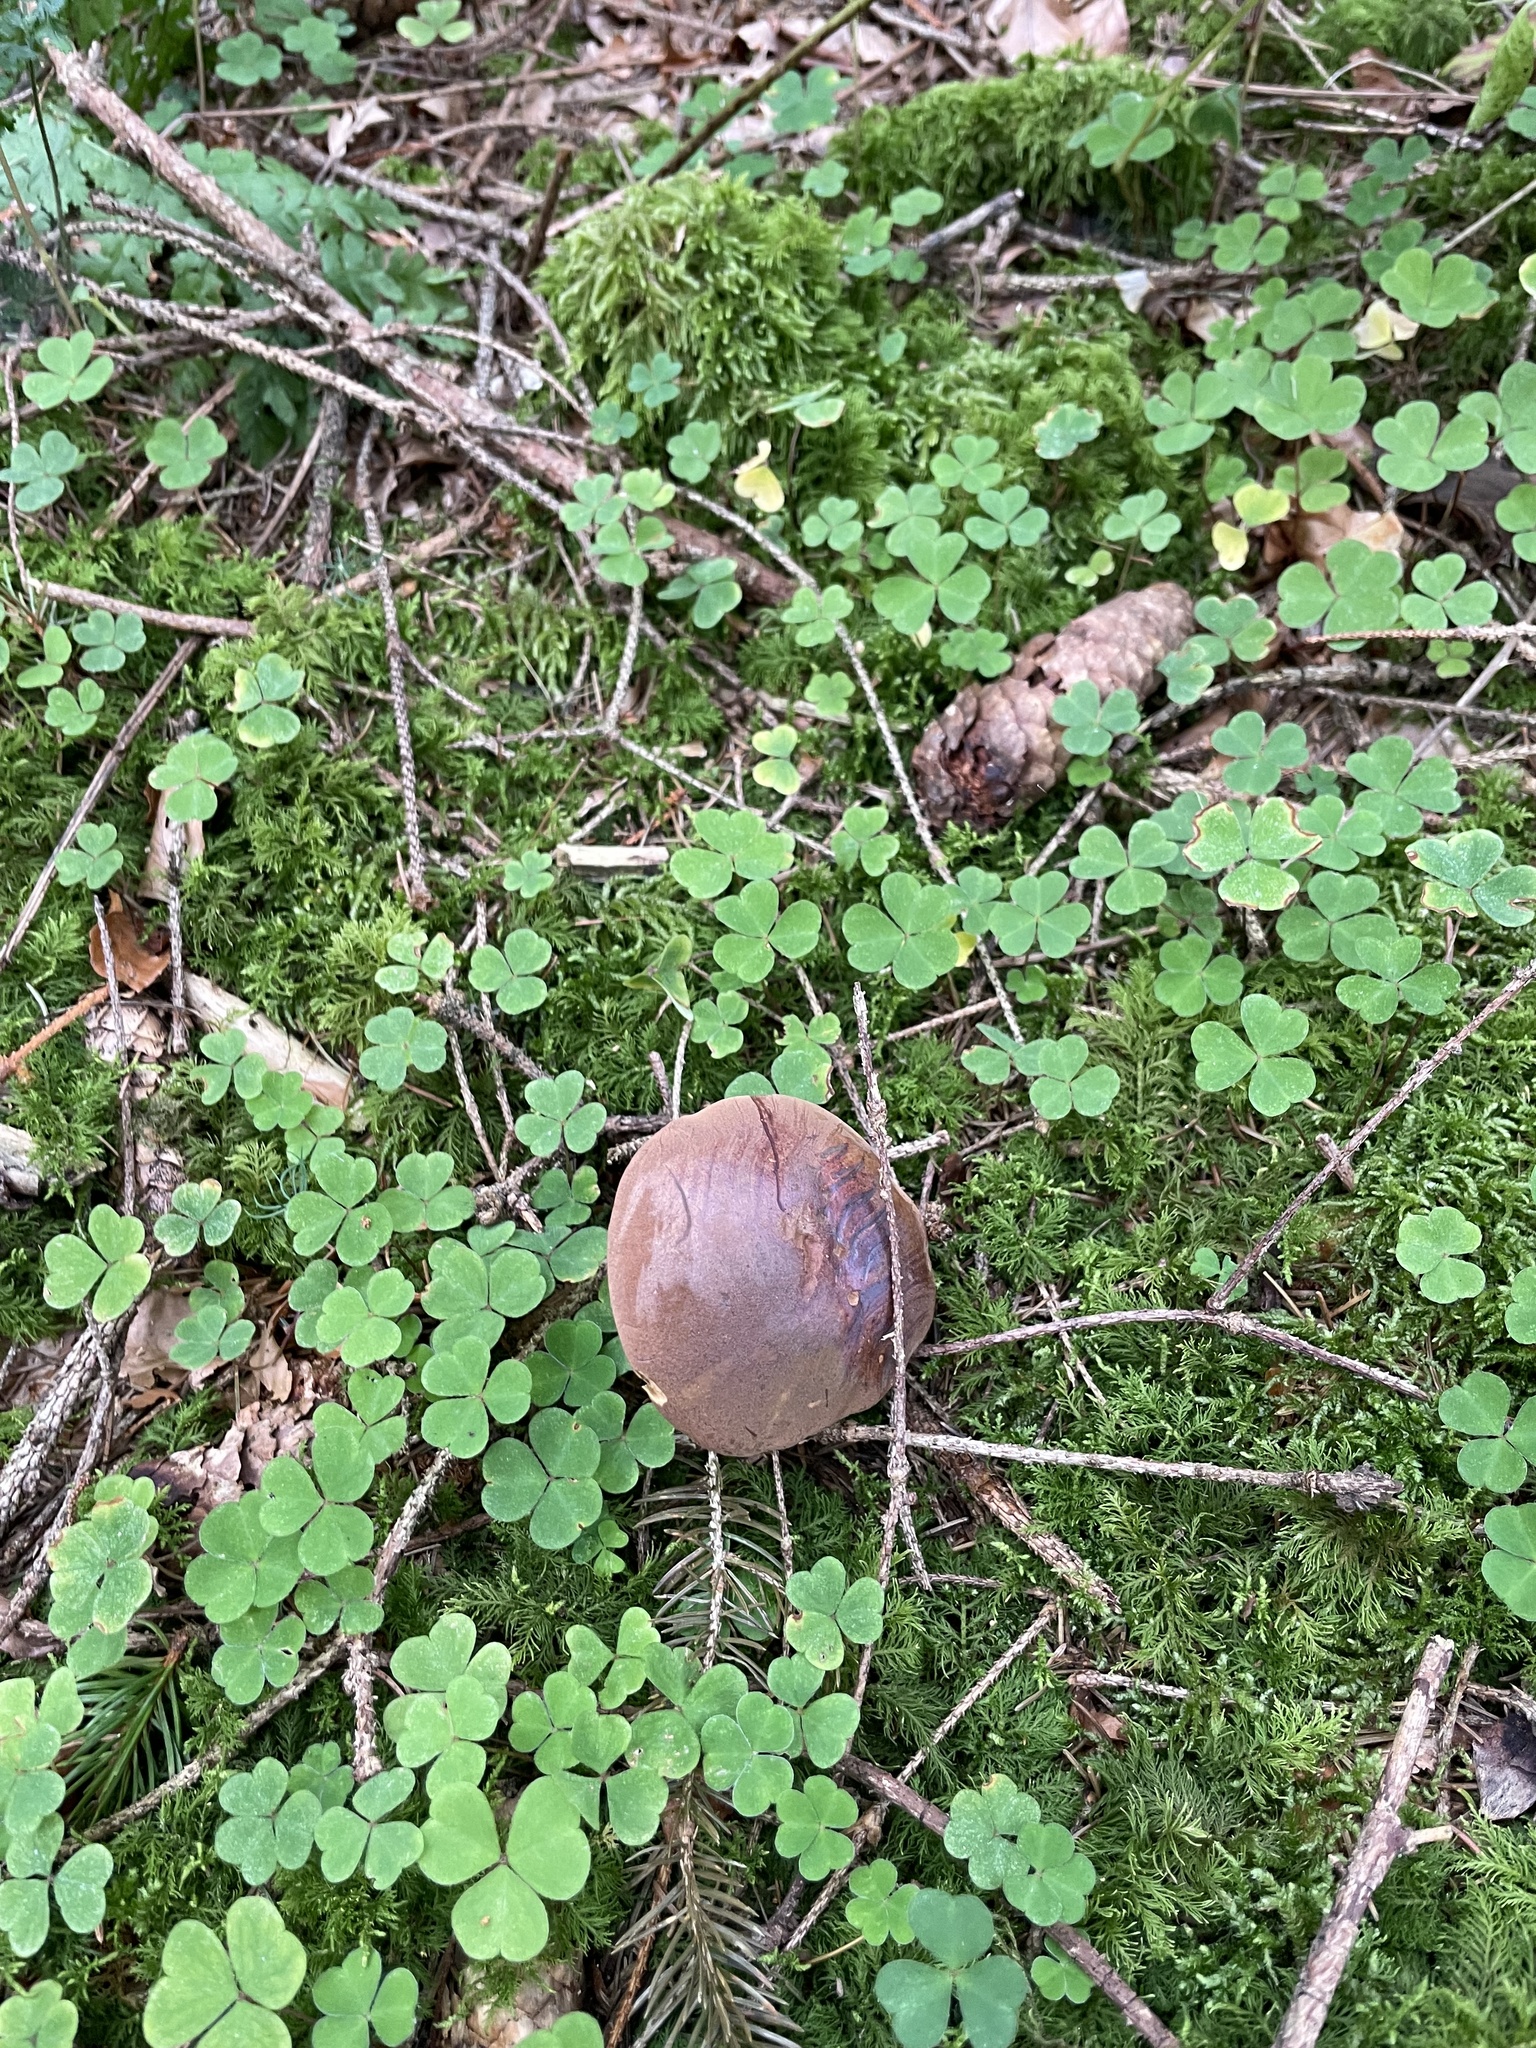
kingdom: Fungi
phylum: Basidiomycota
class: Agaricomycetes
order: Boletales
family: Boletaceae
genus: Imleria
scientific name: Imleria badia
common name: Bay bolete
